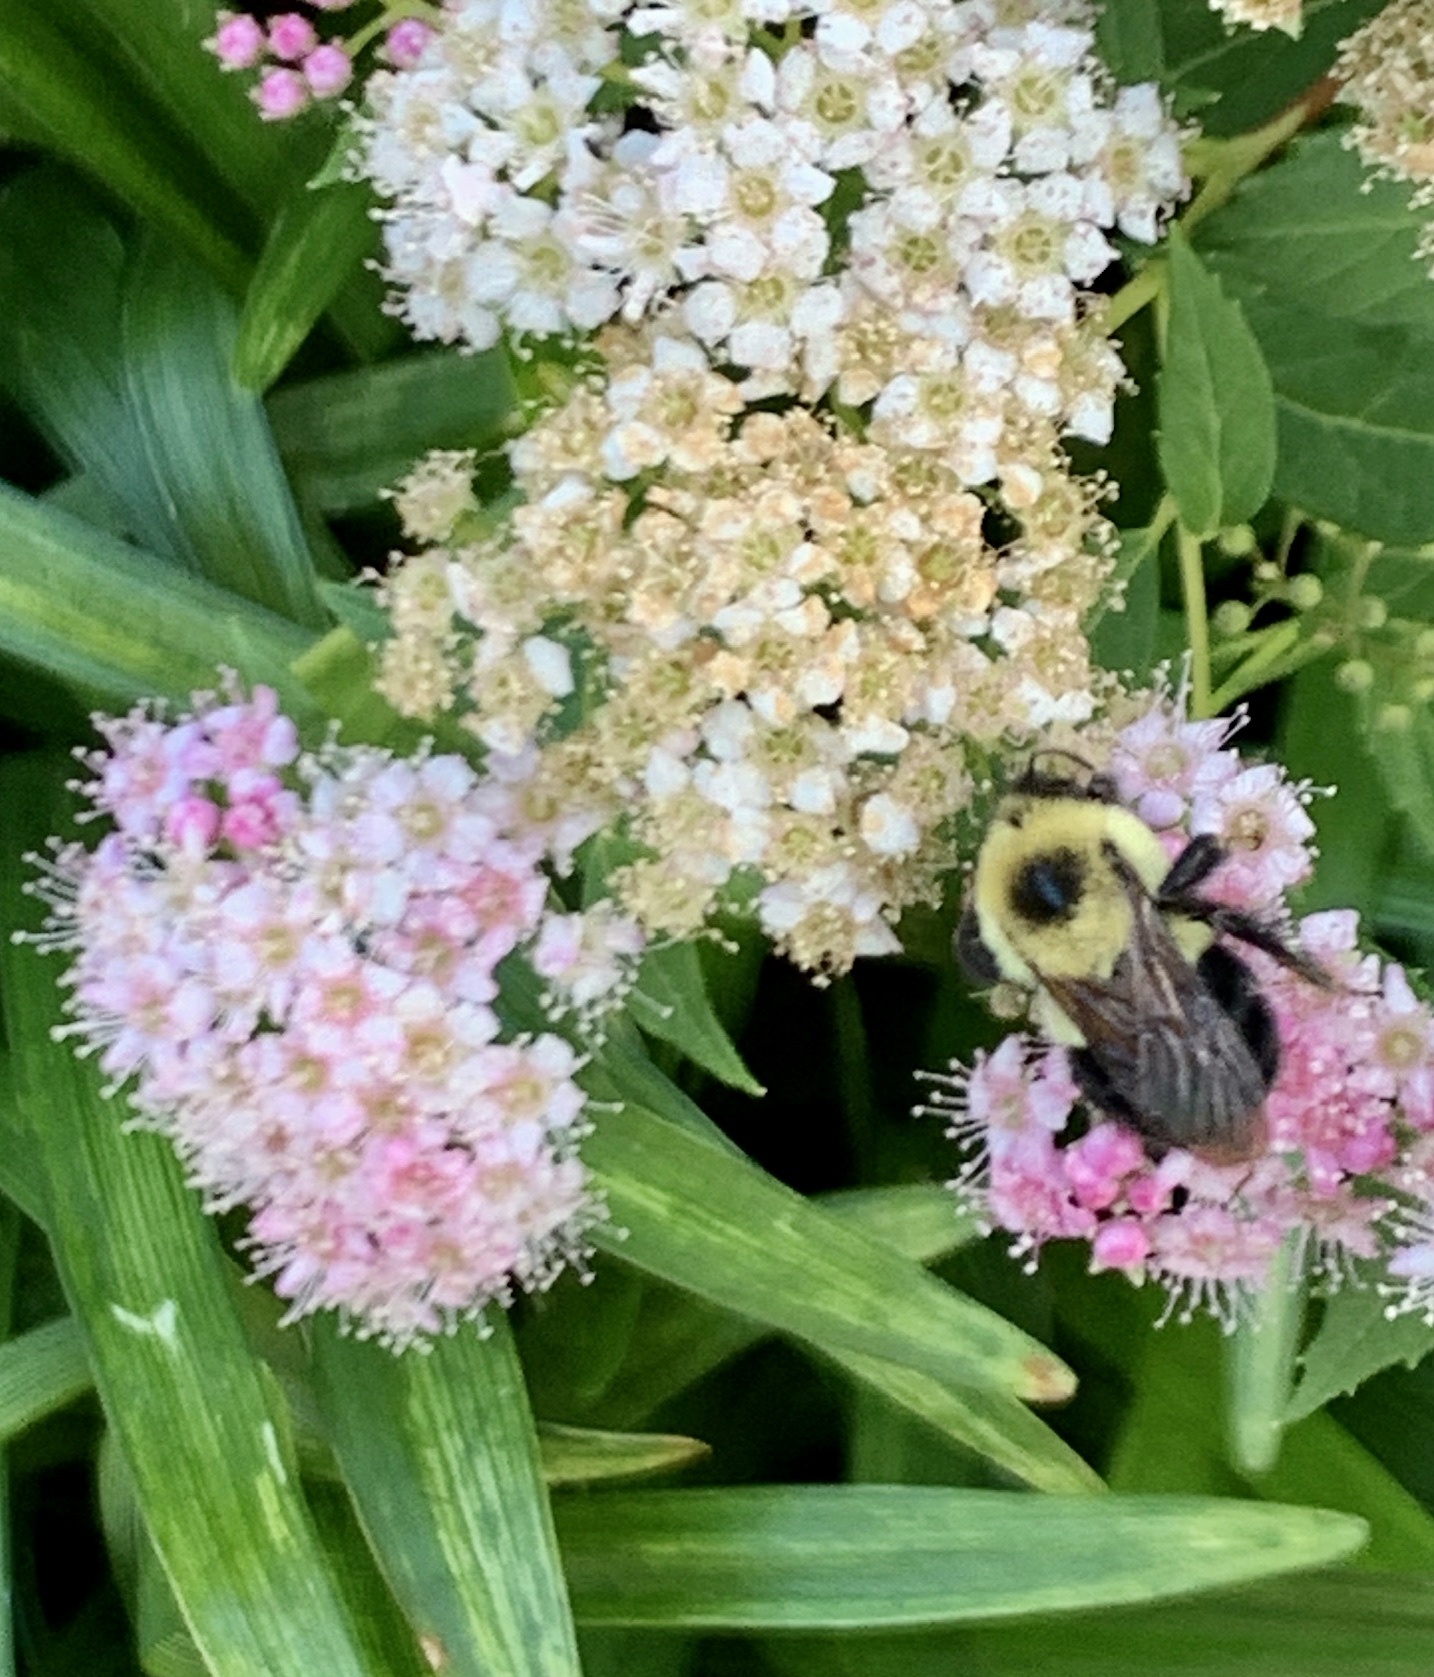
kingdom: Animalia
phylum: Arthropoda
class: Insecta
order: Hymenoptera
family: Apidae
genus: Bombus
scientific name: Bombus bimaculatus
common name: Two-spotted bumble bee
